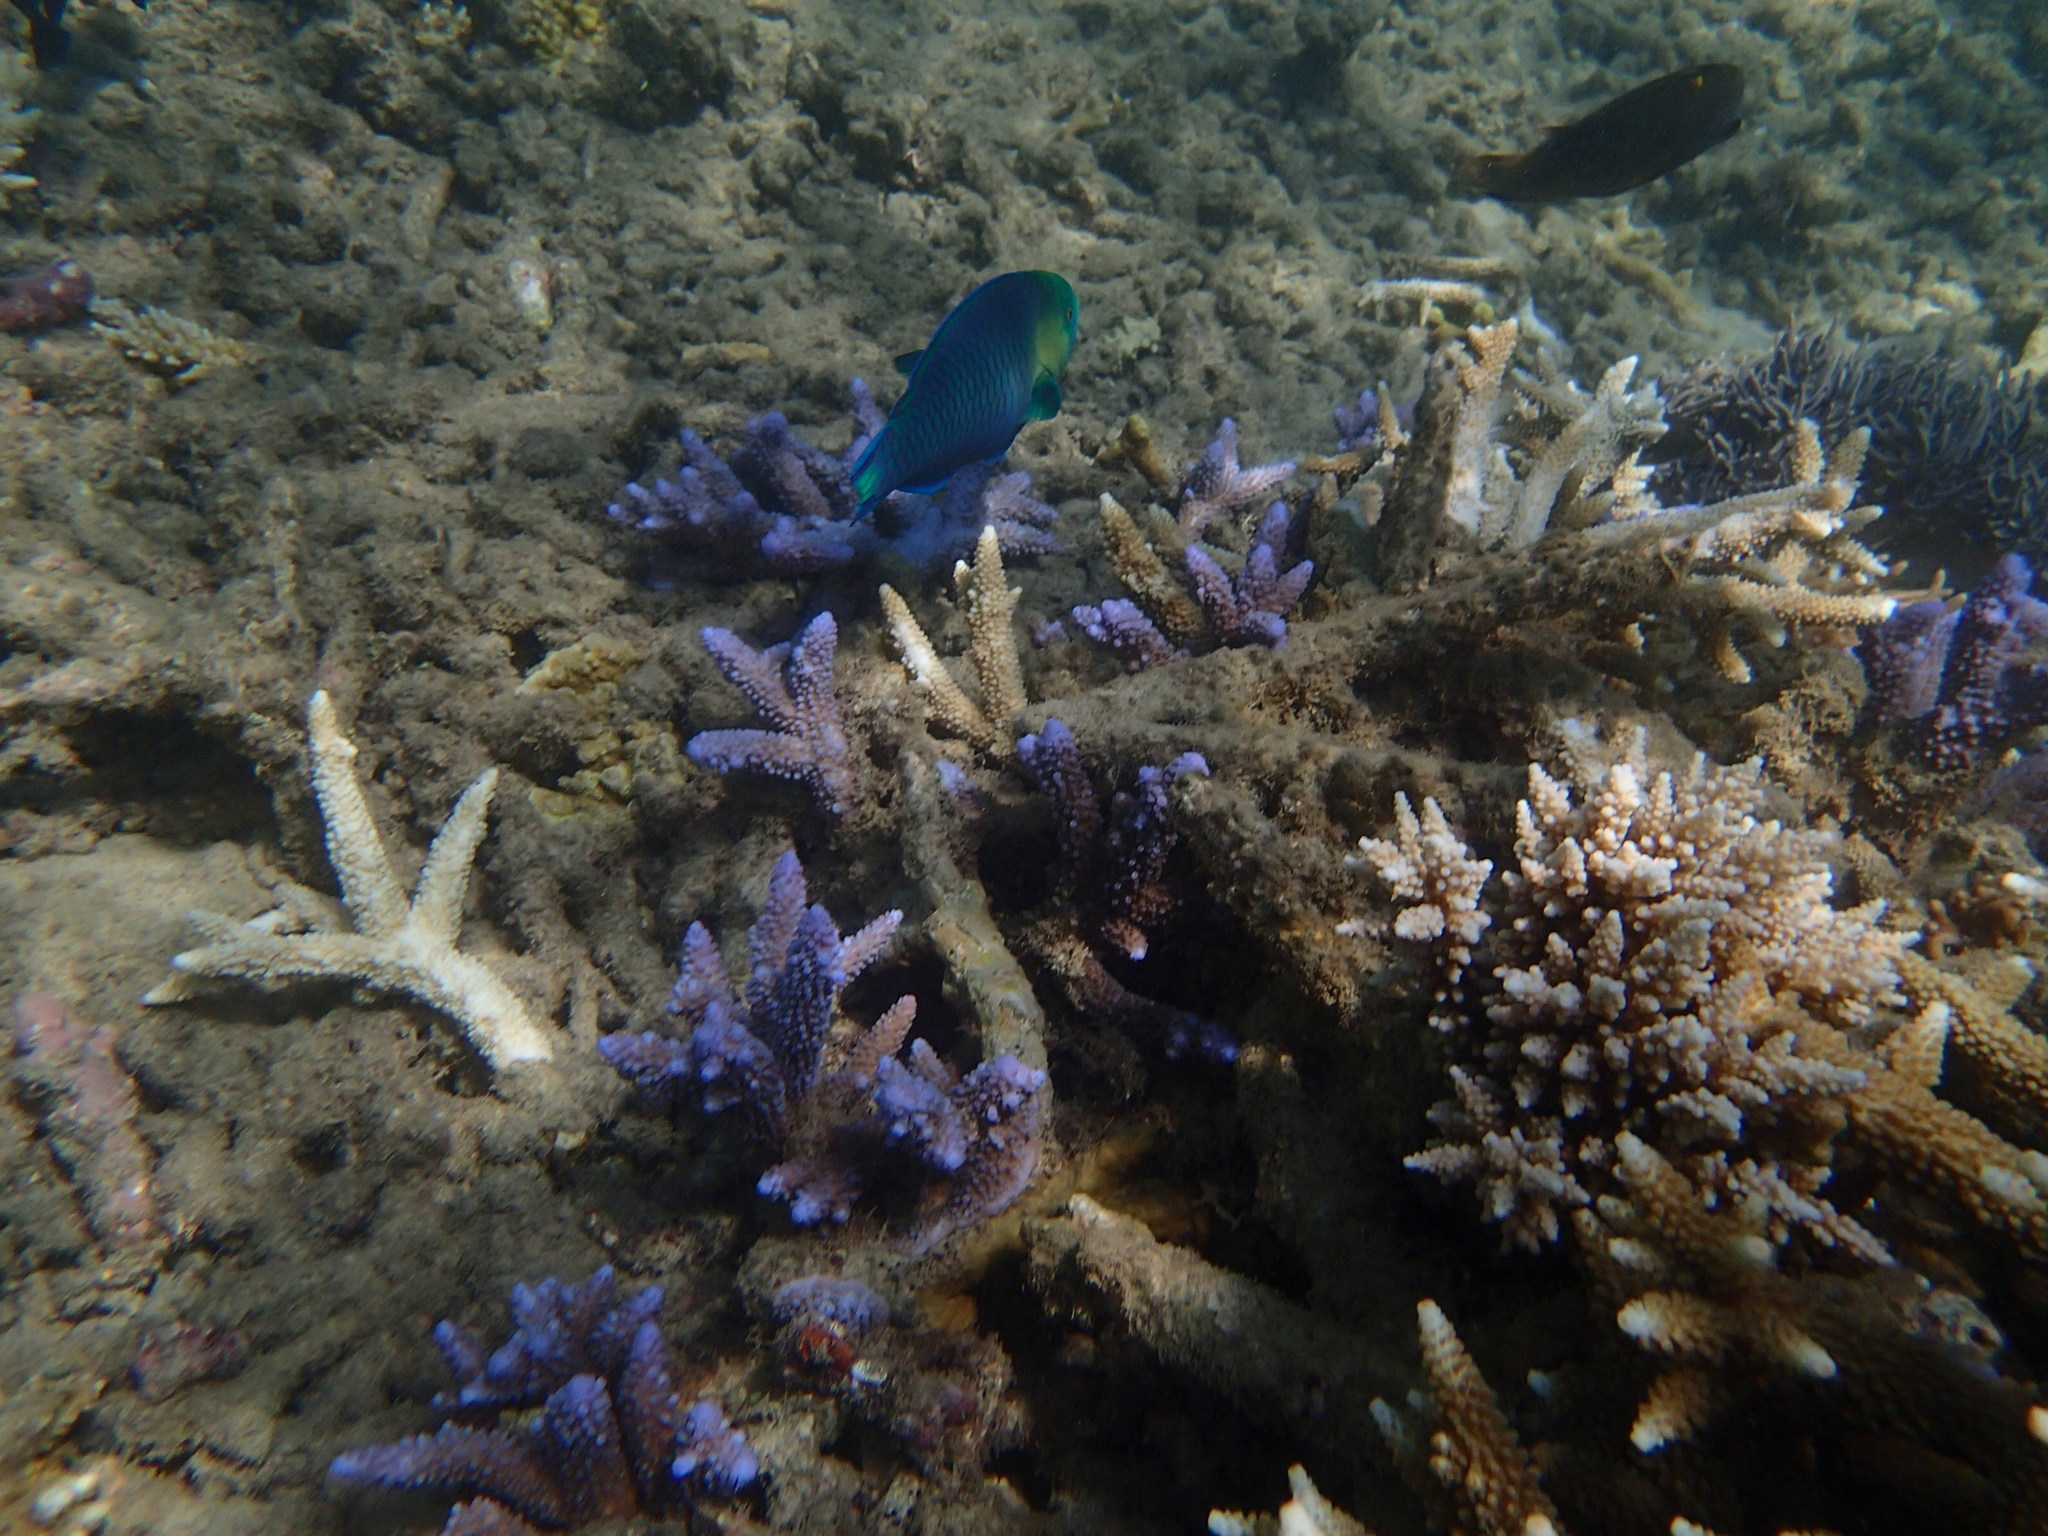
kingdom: Animalia
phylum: Chordata
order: Perciformes
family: Scaridae
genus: Scarus
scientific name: Scarus spinus
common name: Greensnout parrotfish
